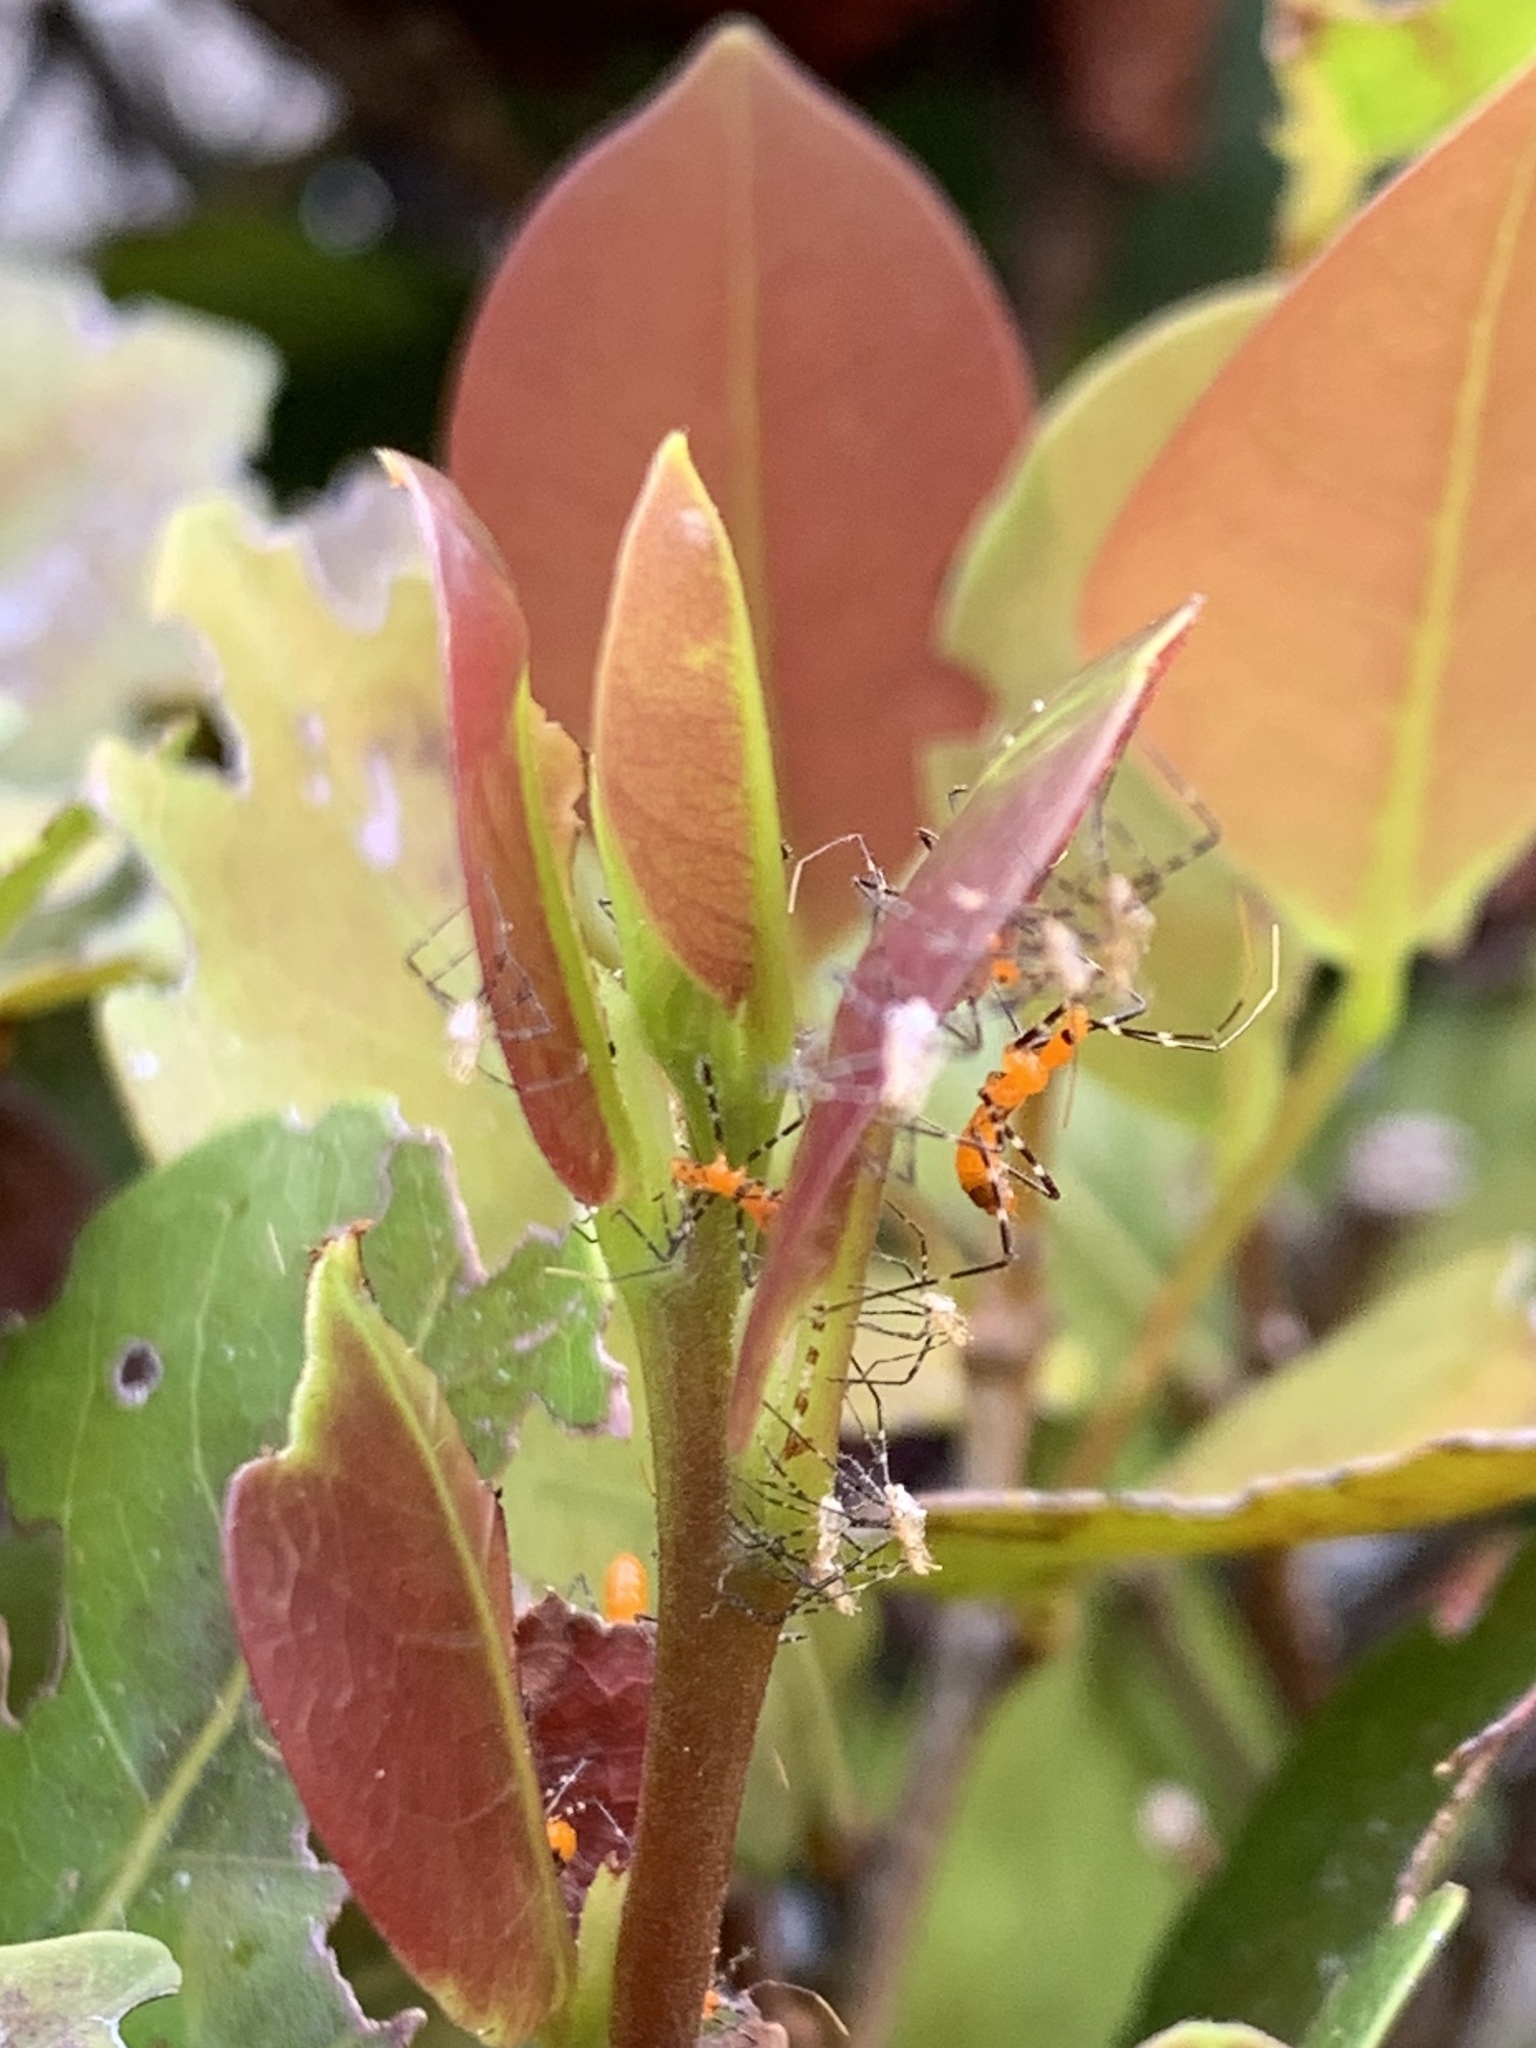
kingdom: Animalia
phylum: Arthropoda
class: Insecta
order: Hemiptera
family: Reduviidae
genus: Zelus
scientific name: Zelus longipes
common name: Milkweed assassin bug
